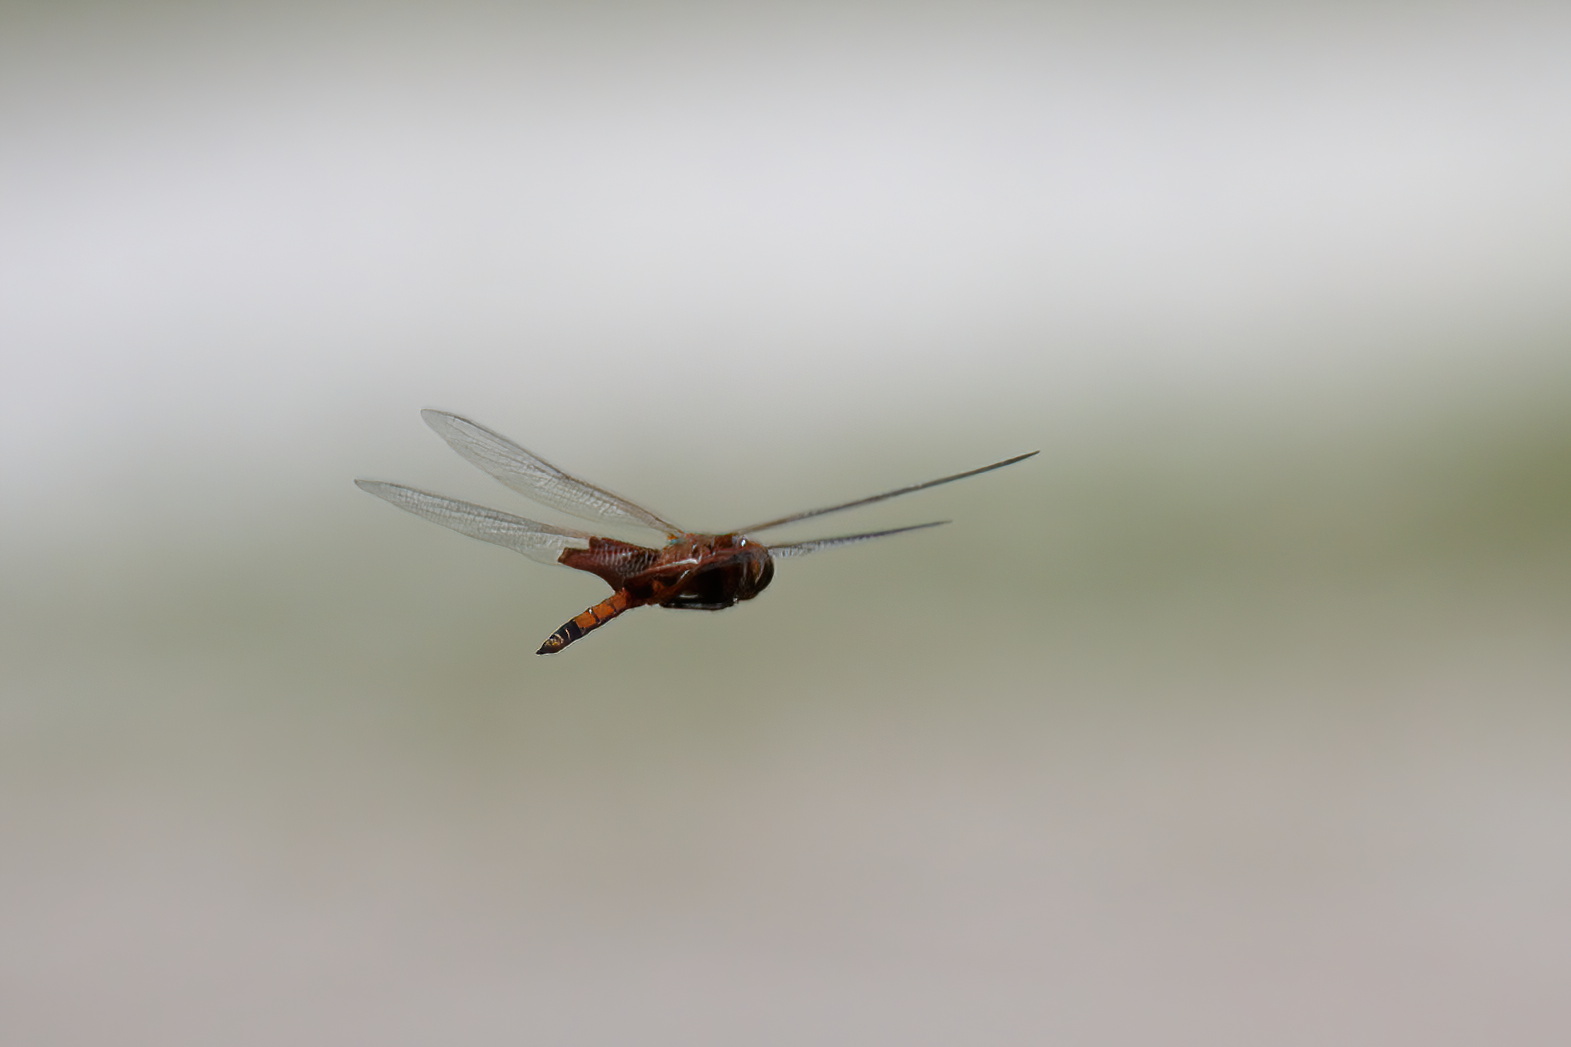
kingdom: Animalia
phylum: Arthropoda
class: Insecta
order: Odonata
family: Libellulidae
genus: Tramea
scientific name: Tramea carolina
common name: Carolina saddlebags
